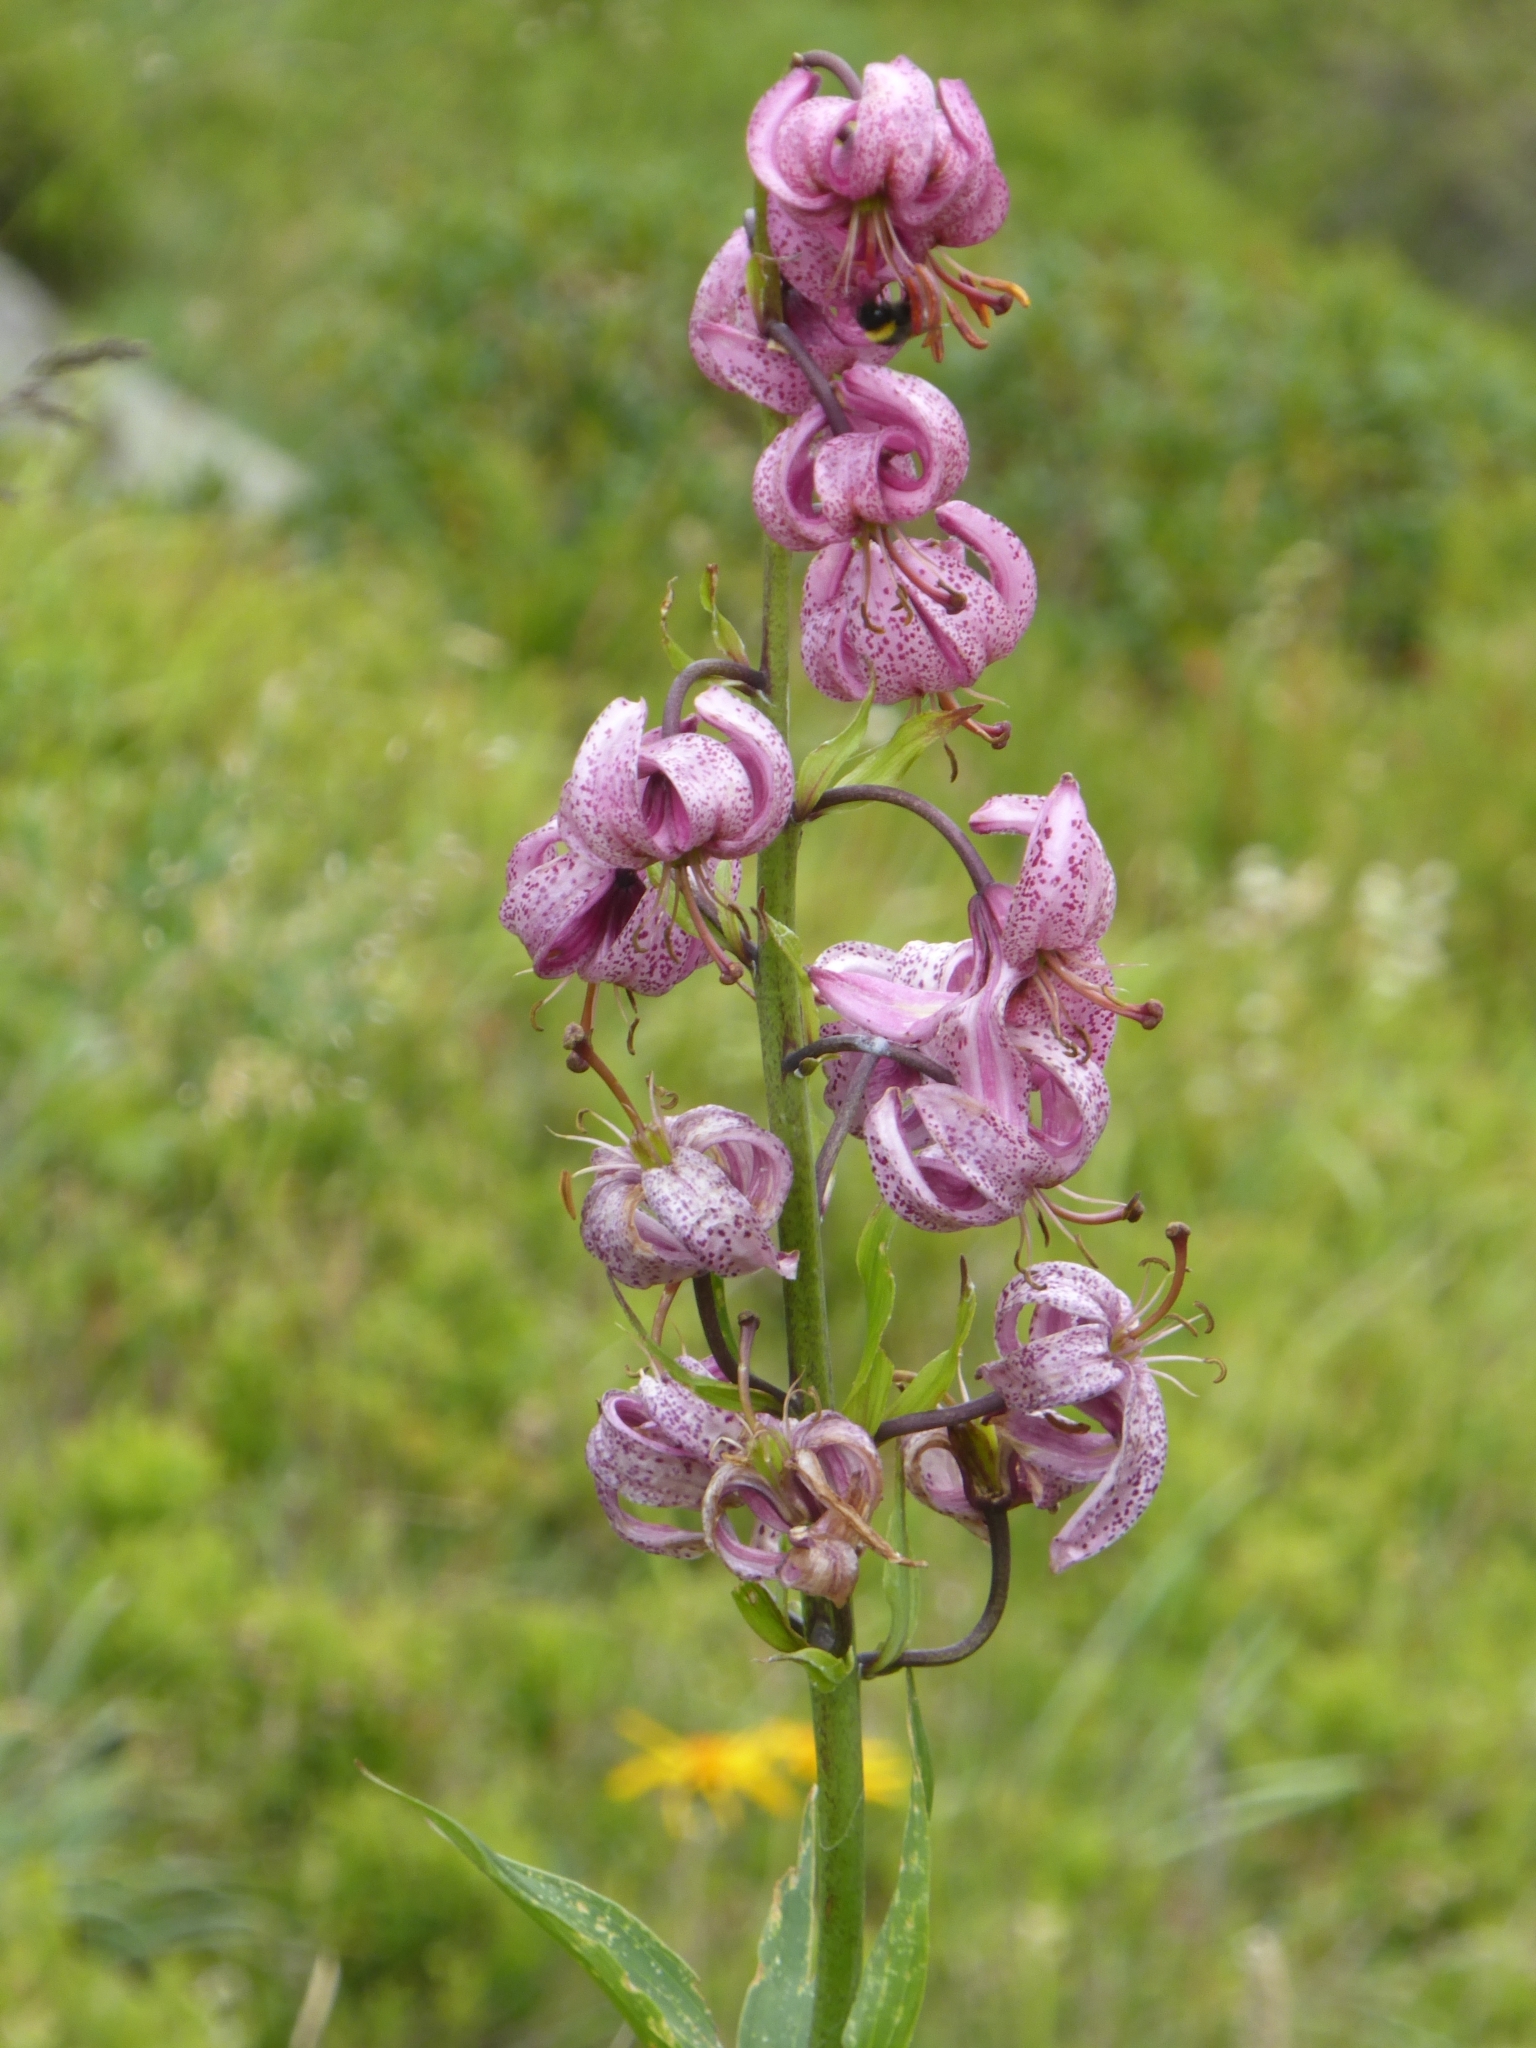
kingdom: Plantae
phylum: Tracheophyta
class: Liliopsida
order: Liliales
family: Liliaceae
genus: Lilium
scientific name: Lilium martagon
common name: Martagon lily
